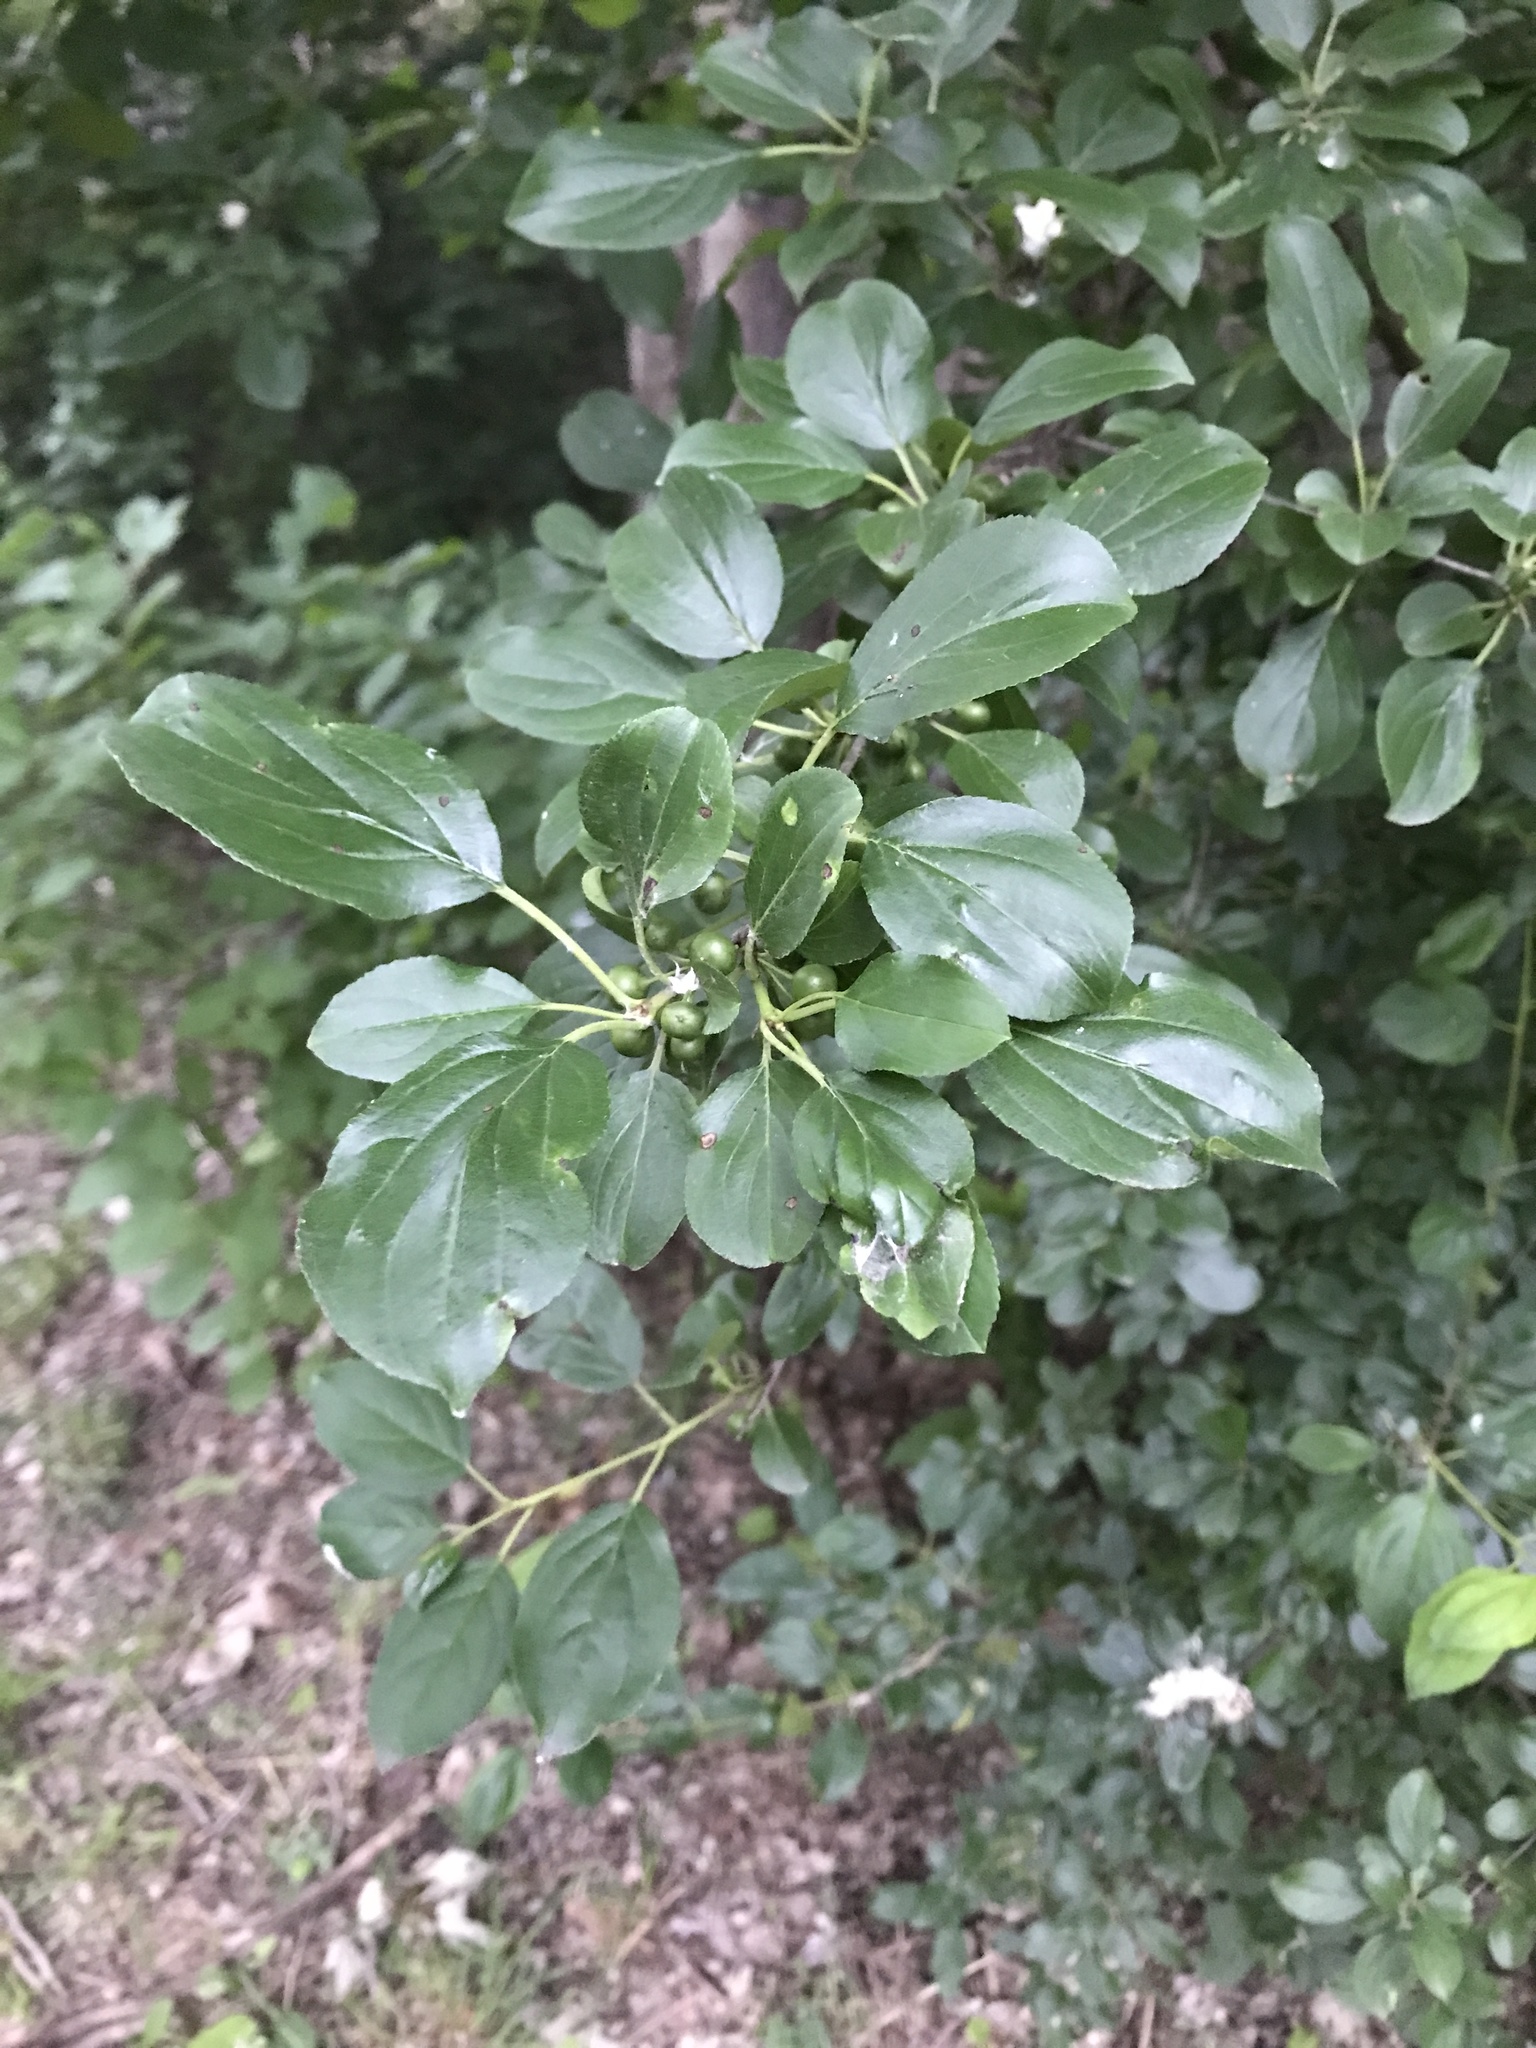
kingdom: Plantae
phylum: Tracheophyta
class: Magnoliopsida
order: Rosales
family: Rhamnaceae
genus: Rhamnus
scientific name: Rhamnus cathartica
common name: Common buckthorn
